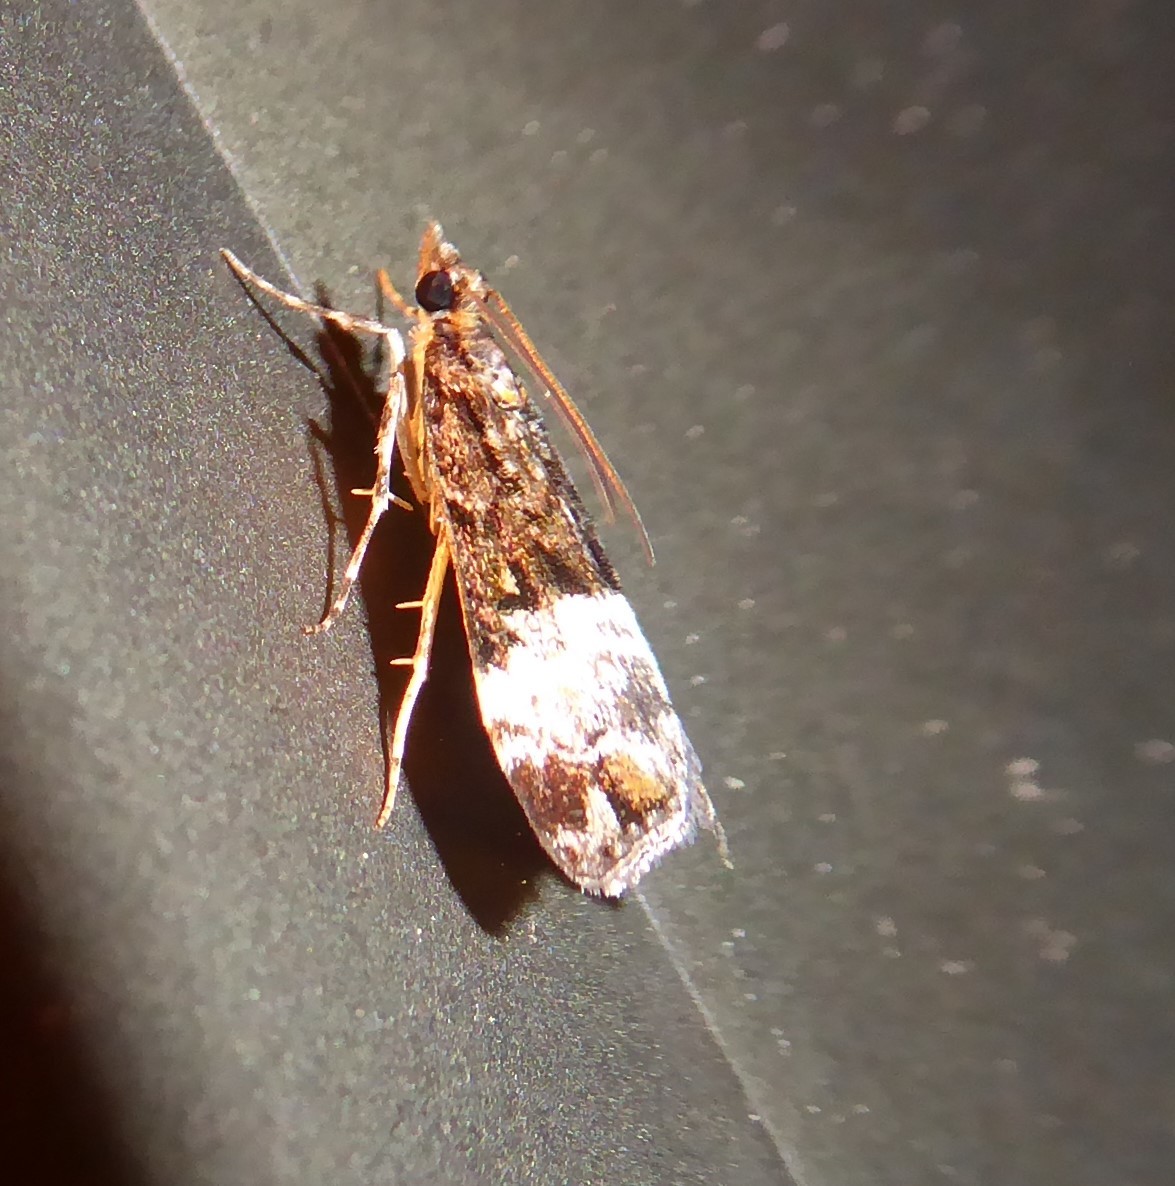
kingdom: Animalia
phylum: Arthropoda
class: Insecta
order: Lepidoptera
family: Crambidae
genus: Scoparia
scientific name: Scoparia minusculalis
